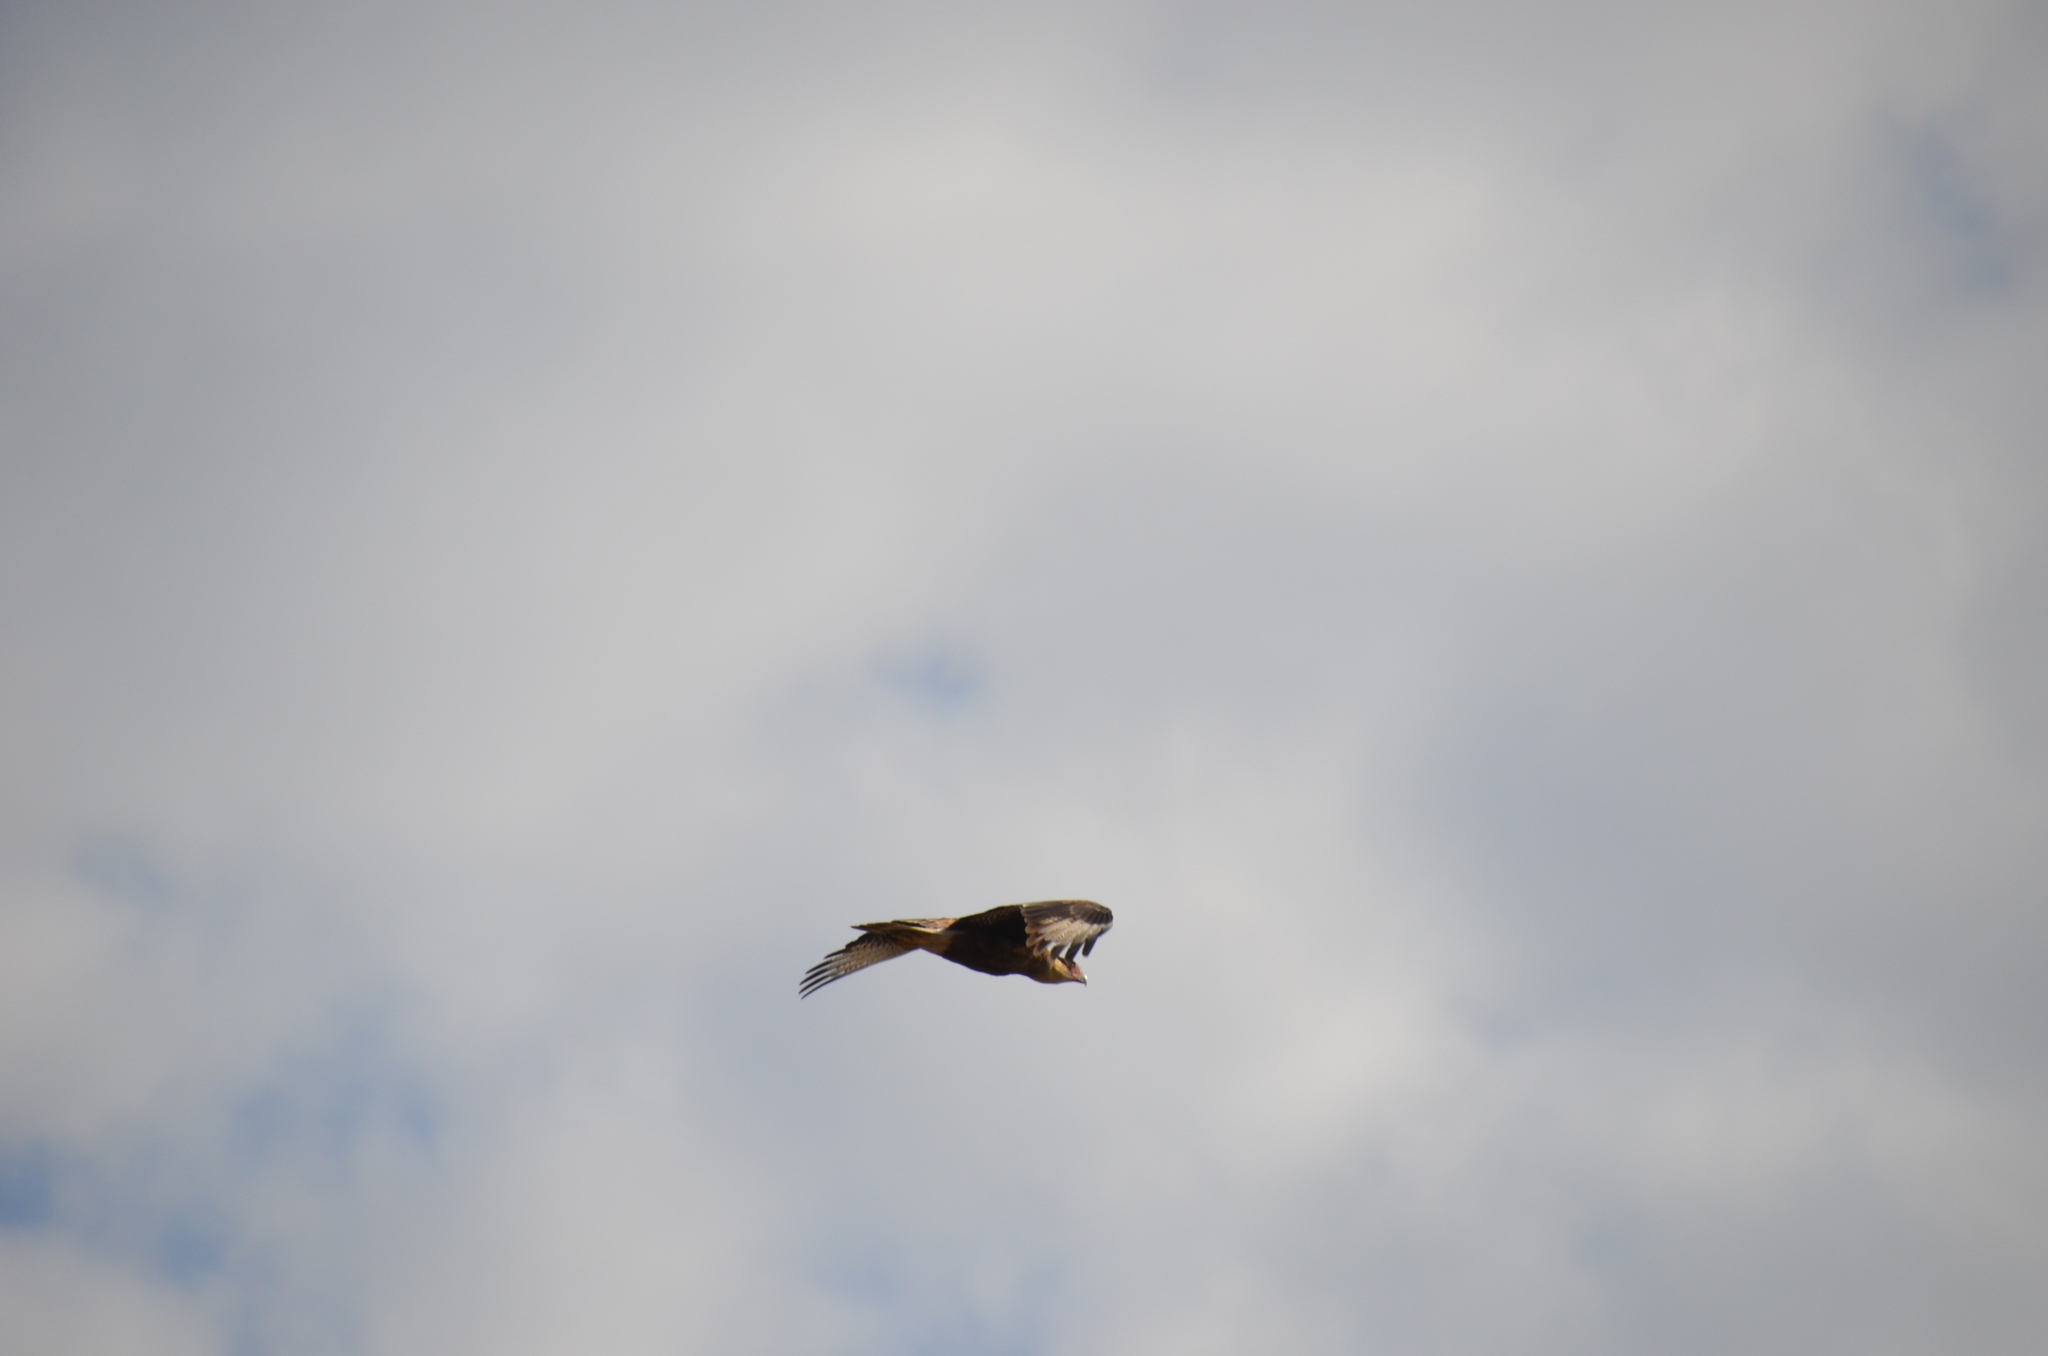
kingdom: Animalia
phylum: Chordata
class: Aves
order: Falconiformes
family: Falconidae
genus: Caracara
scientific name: Caracara plancus
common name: Southern caracara
